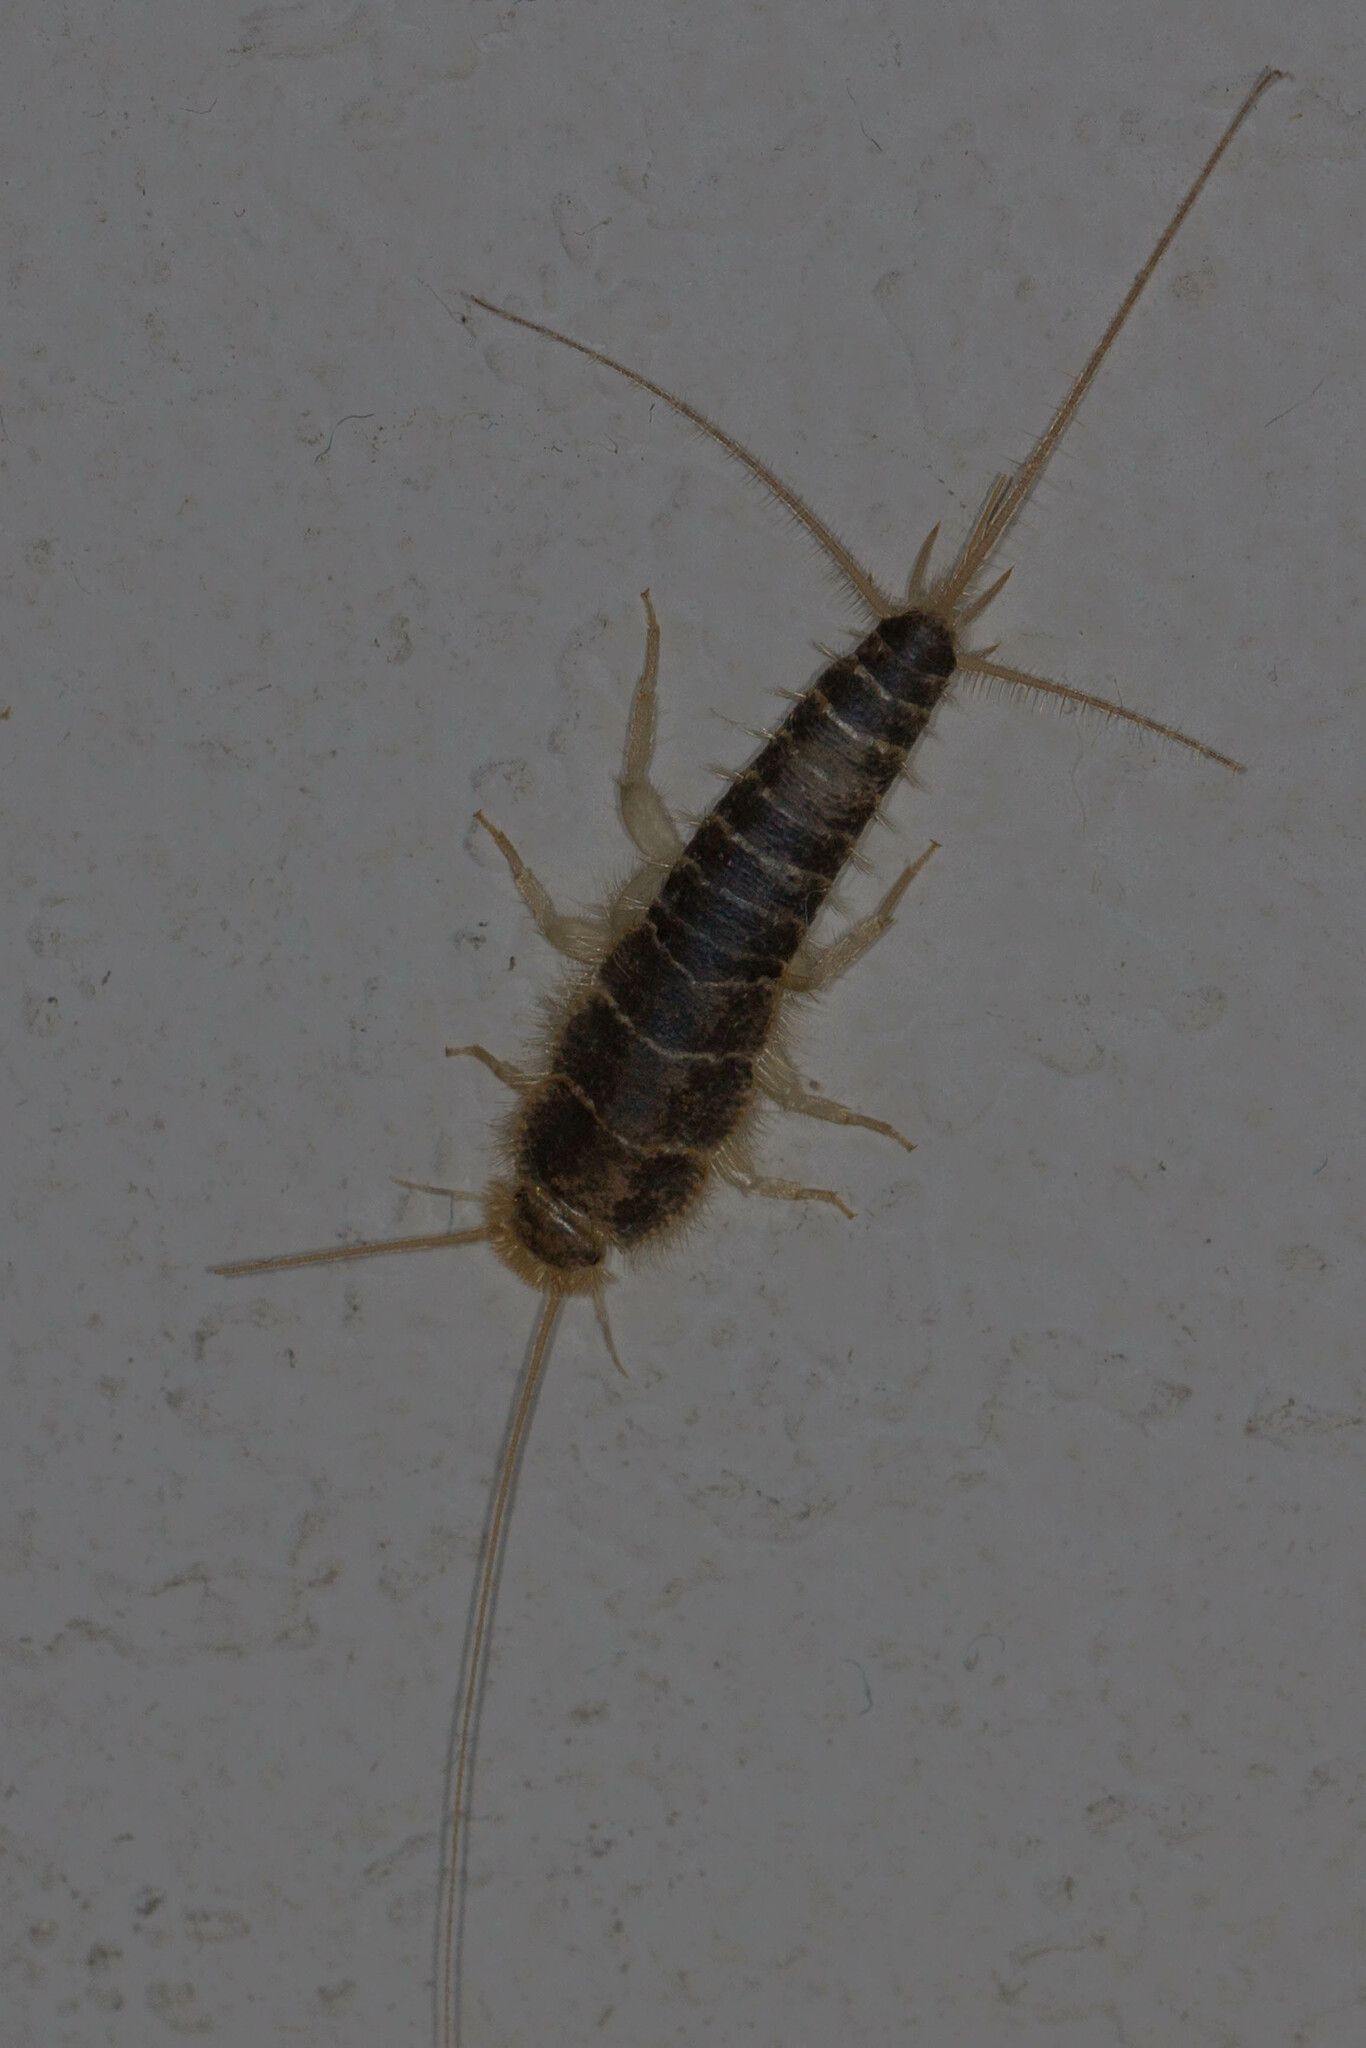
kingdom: Animalia
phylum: Arthropoda
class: Insecta
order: Zygentoma
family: Lepismatidae
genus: Ctenolepisma
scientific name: Ctenolepisma longicaudatum
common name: Silverfish
